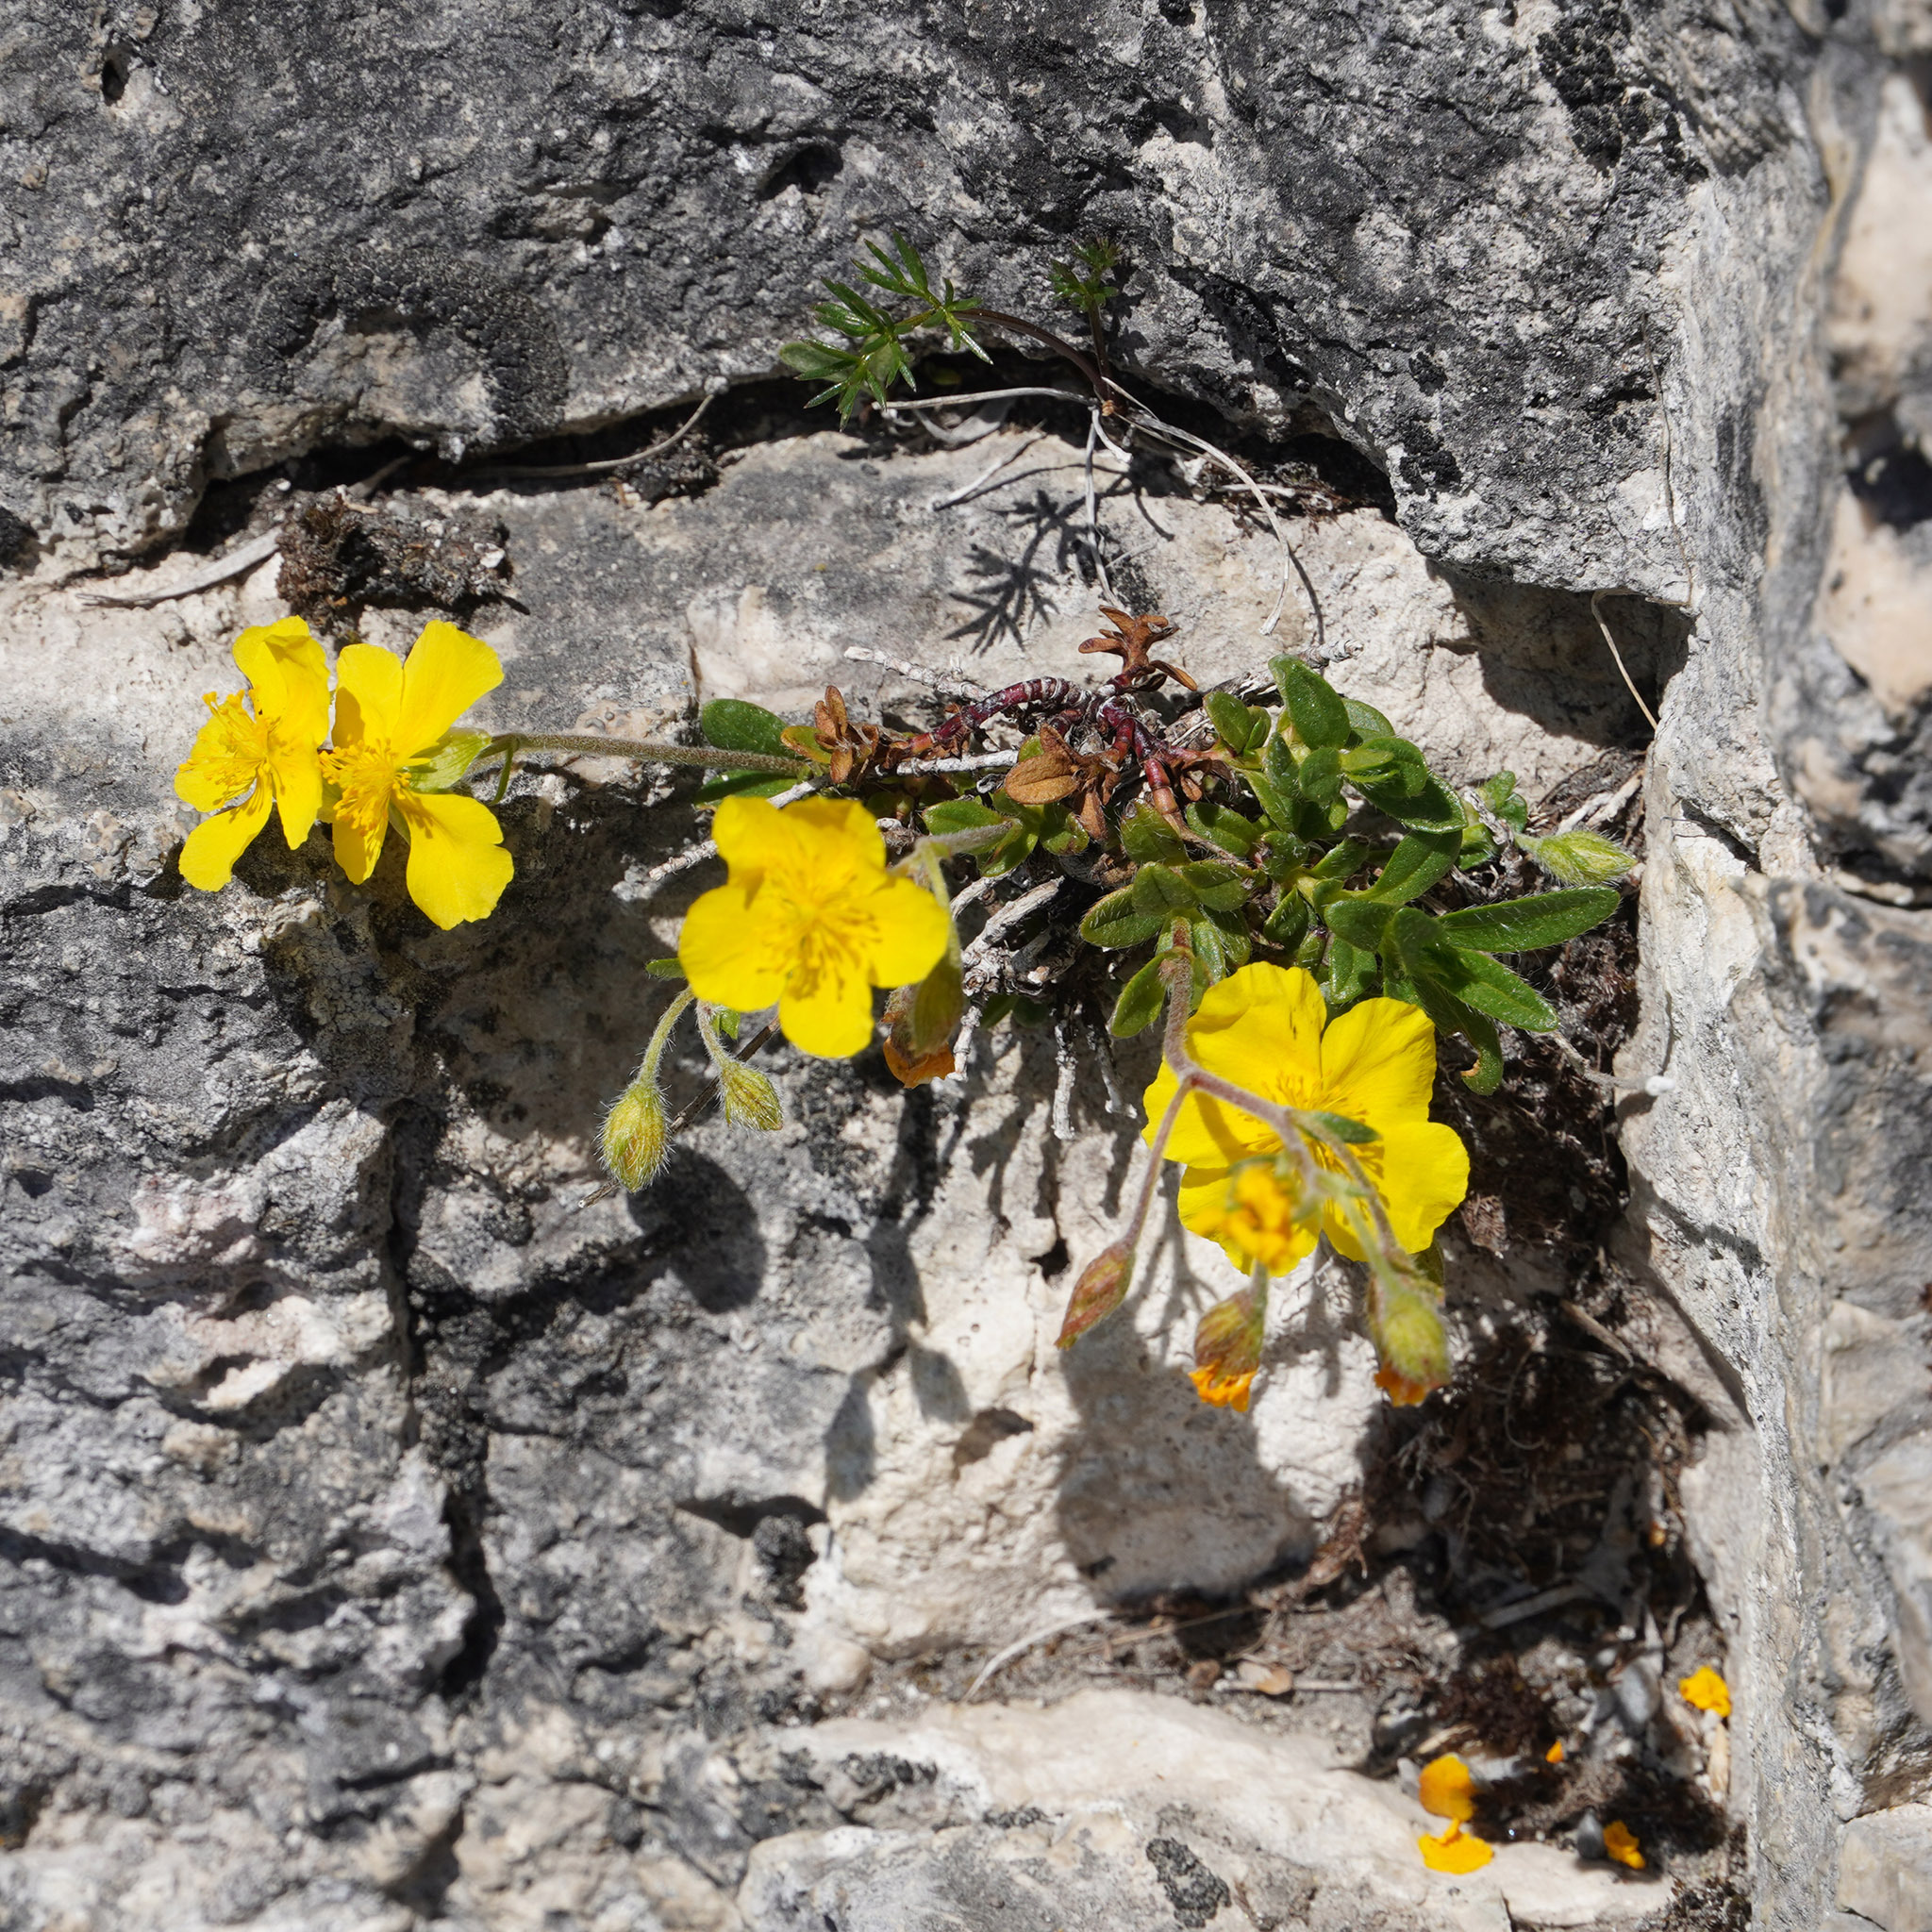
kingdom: Plantae
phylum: Tracheophyta
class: Magnoliopsida
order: Malvales
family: Cistaceae
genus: Helianthemum
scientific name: Helianthemum alpestre
